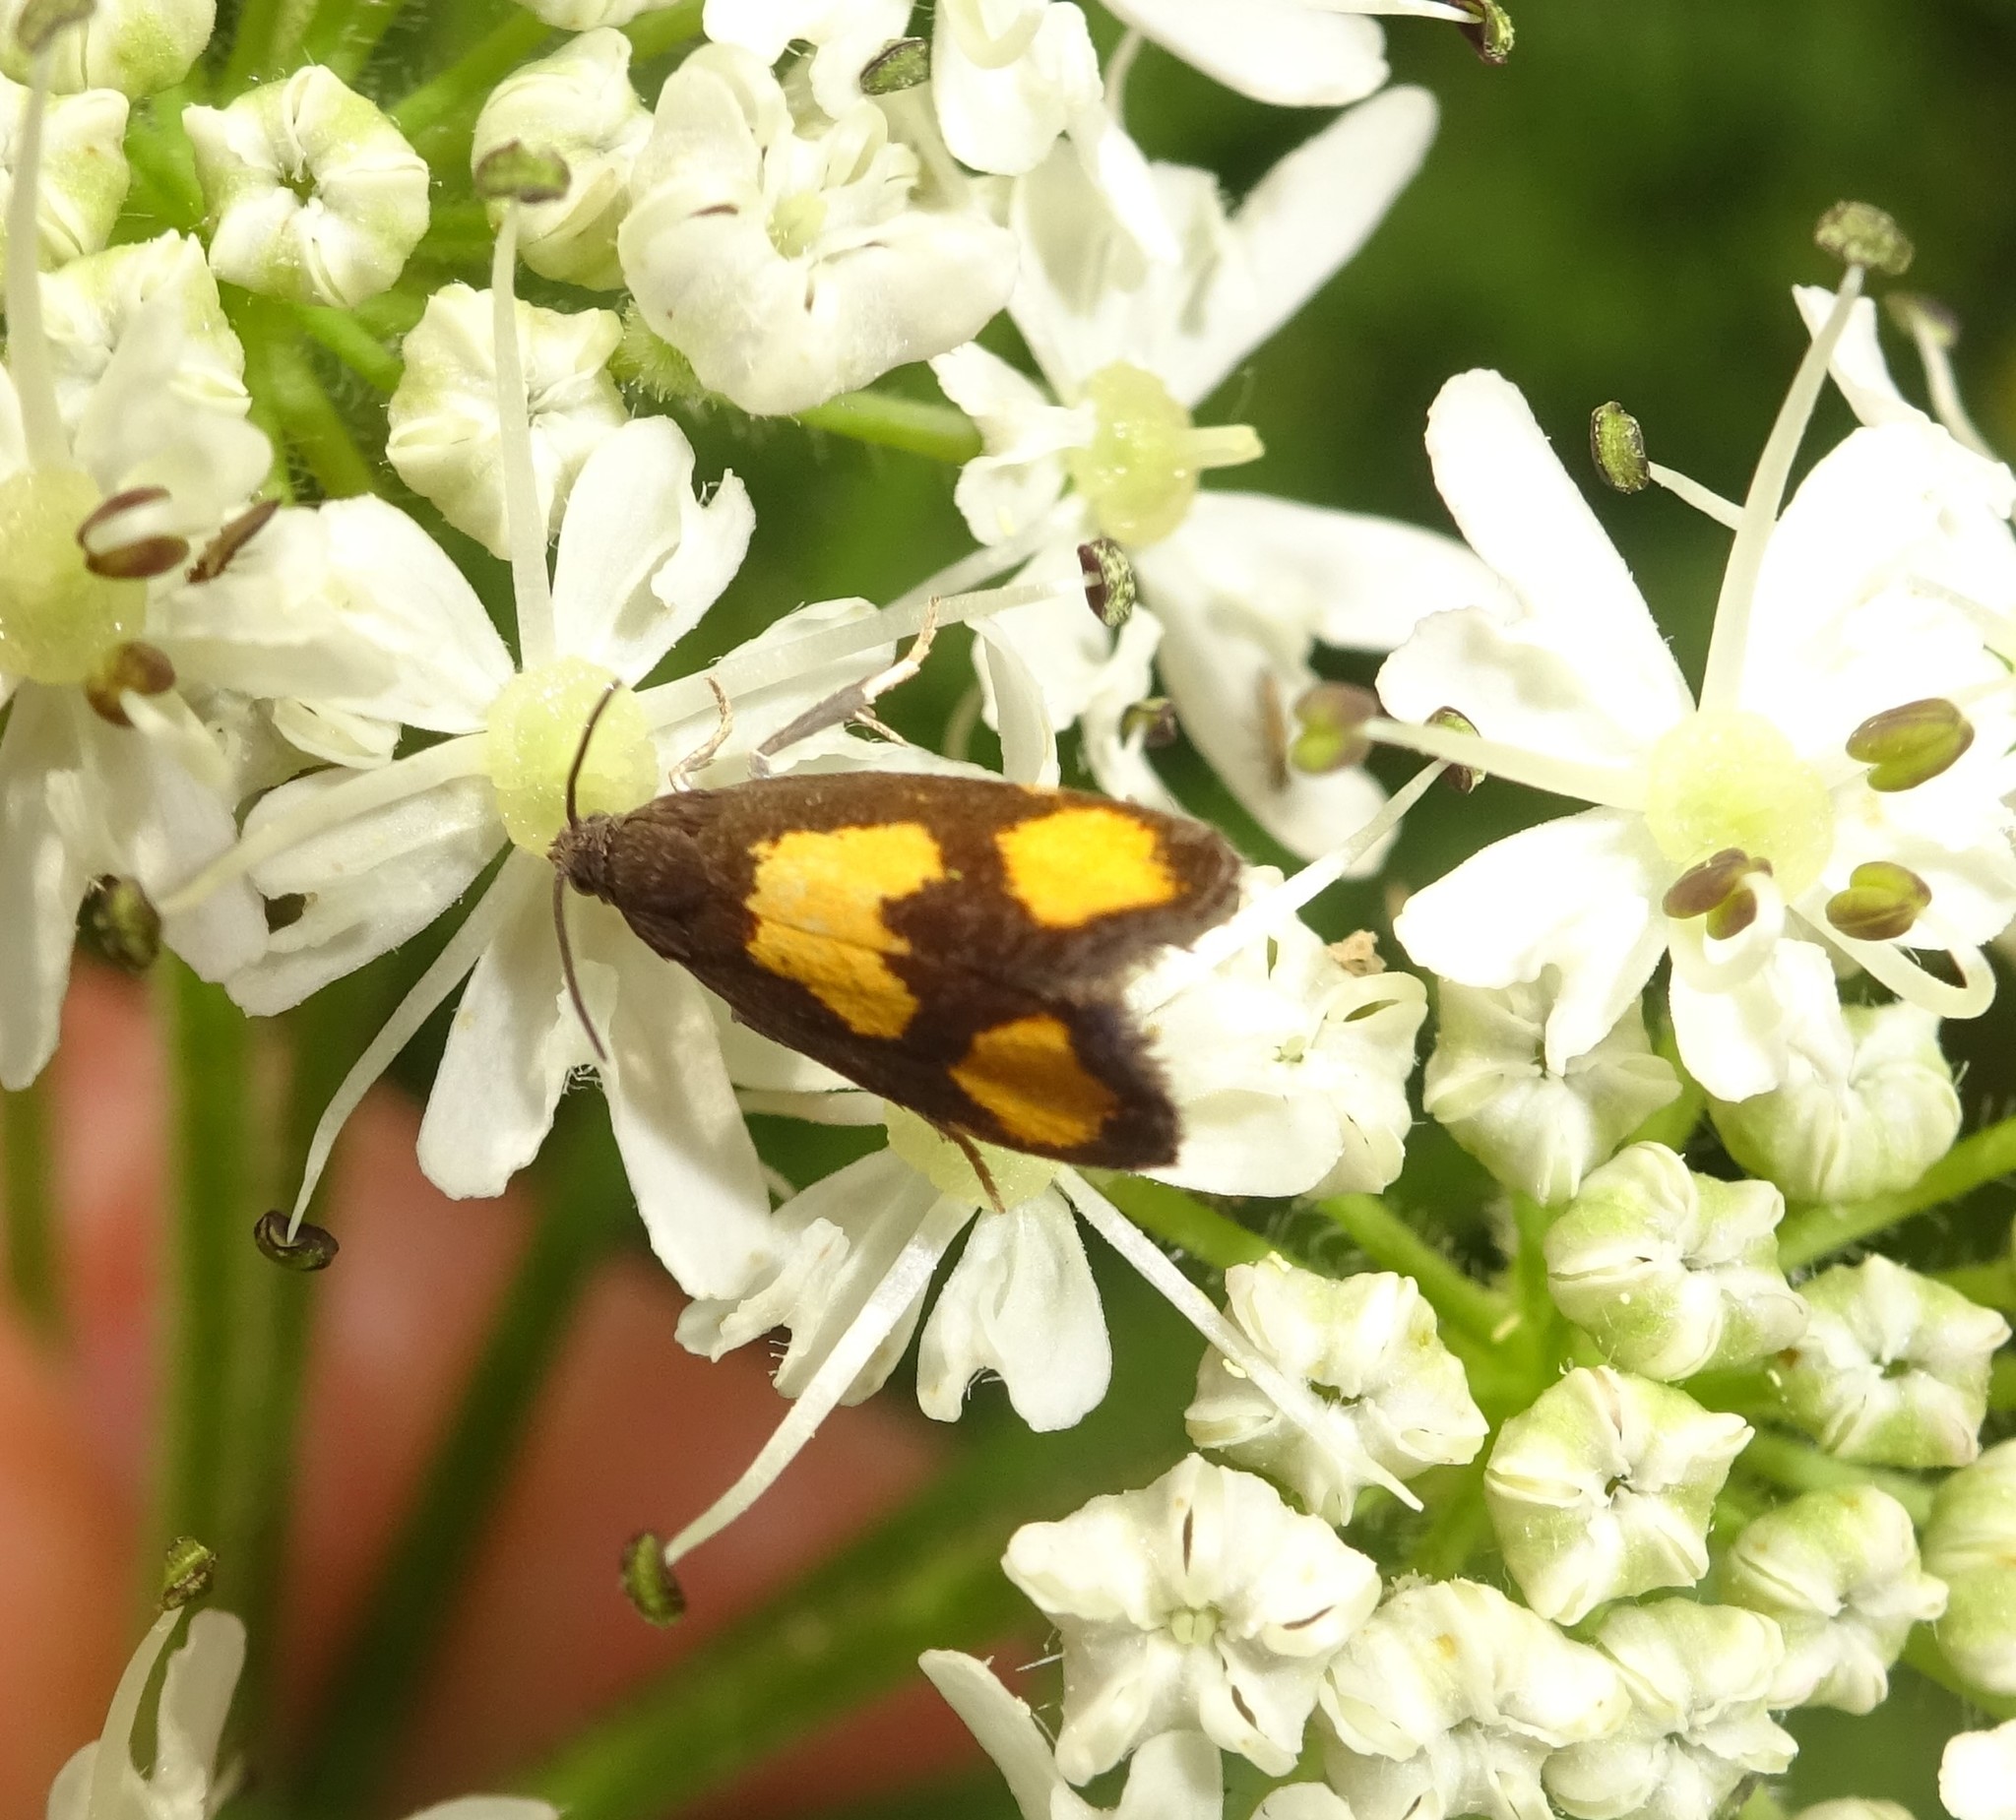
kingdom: Animalia
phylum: Arthropoda
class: Insecta
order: Lepidoptera
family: Tortricidae
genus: Pammene
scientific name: Pammene aurana
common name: Orange-spot piercer
